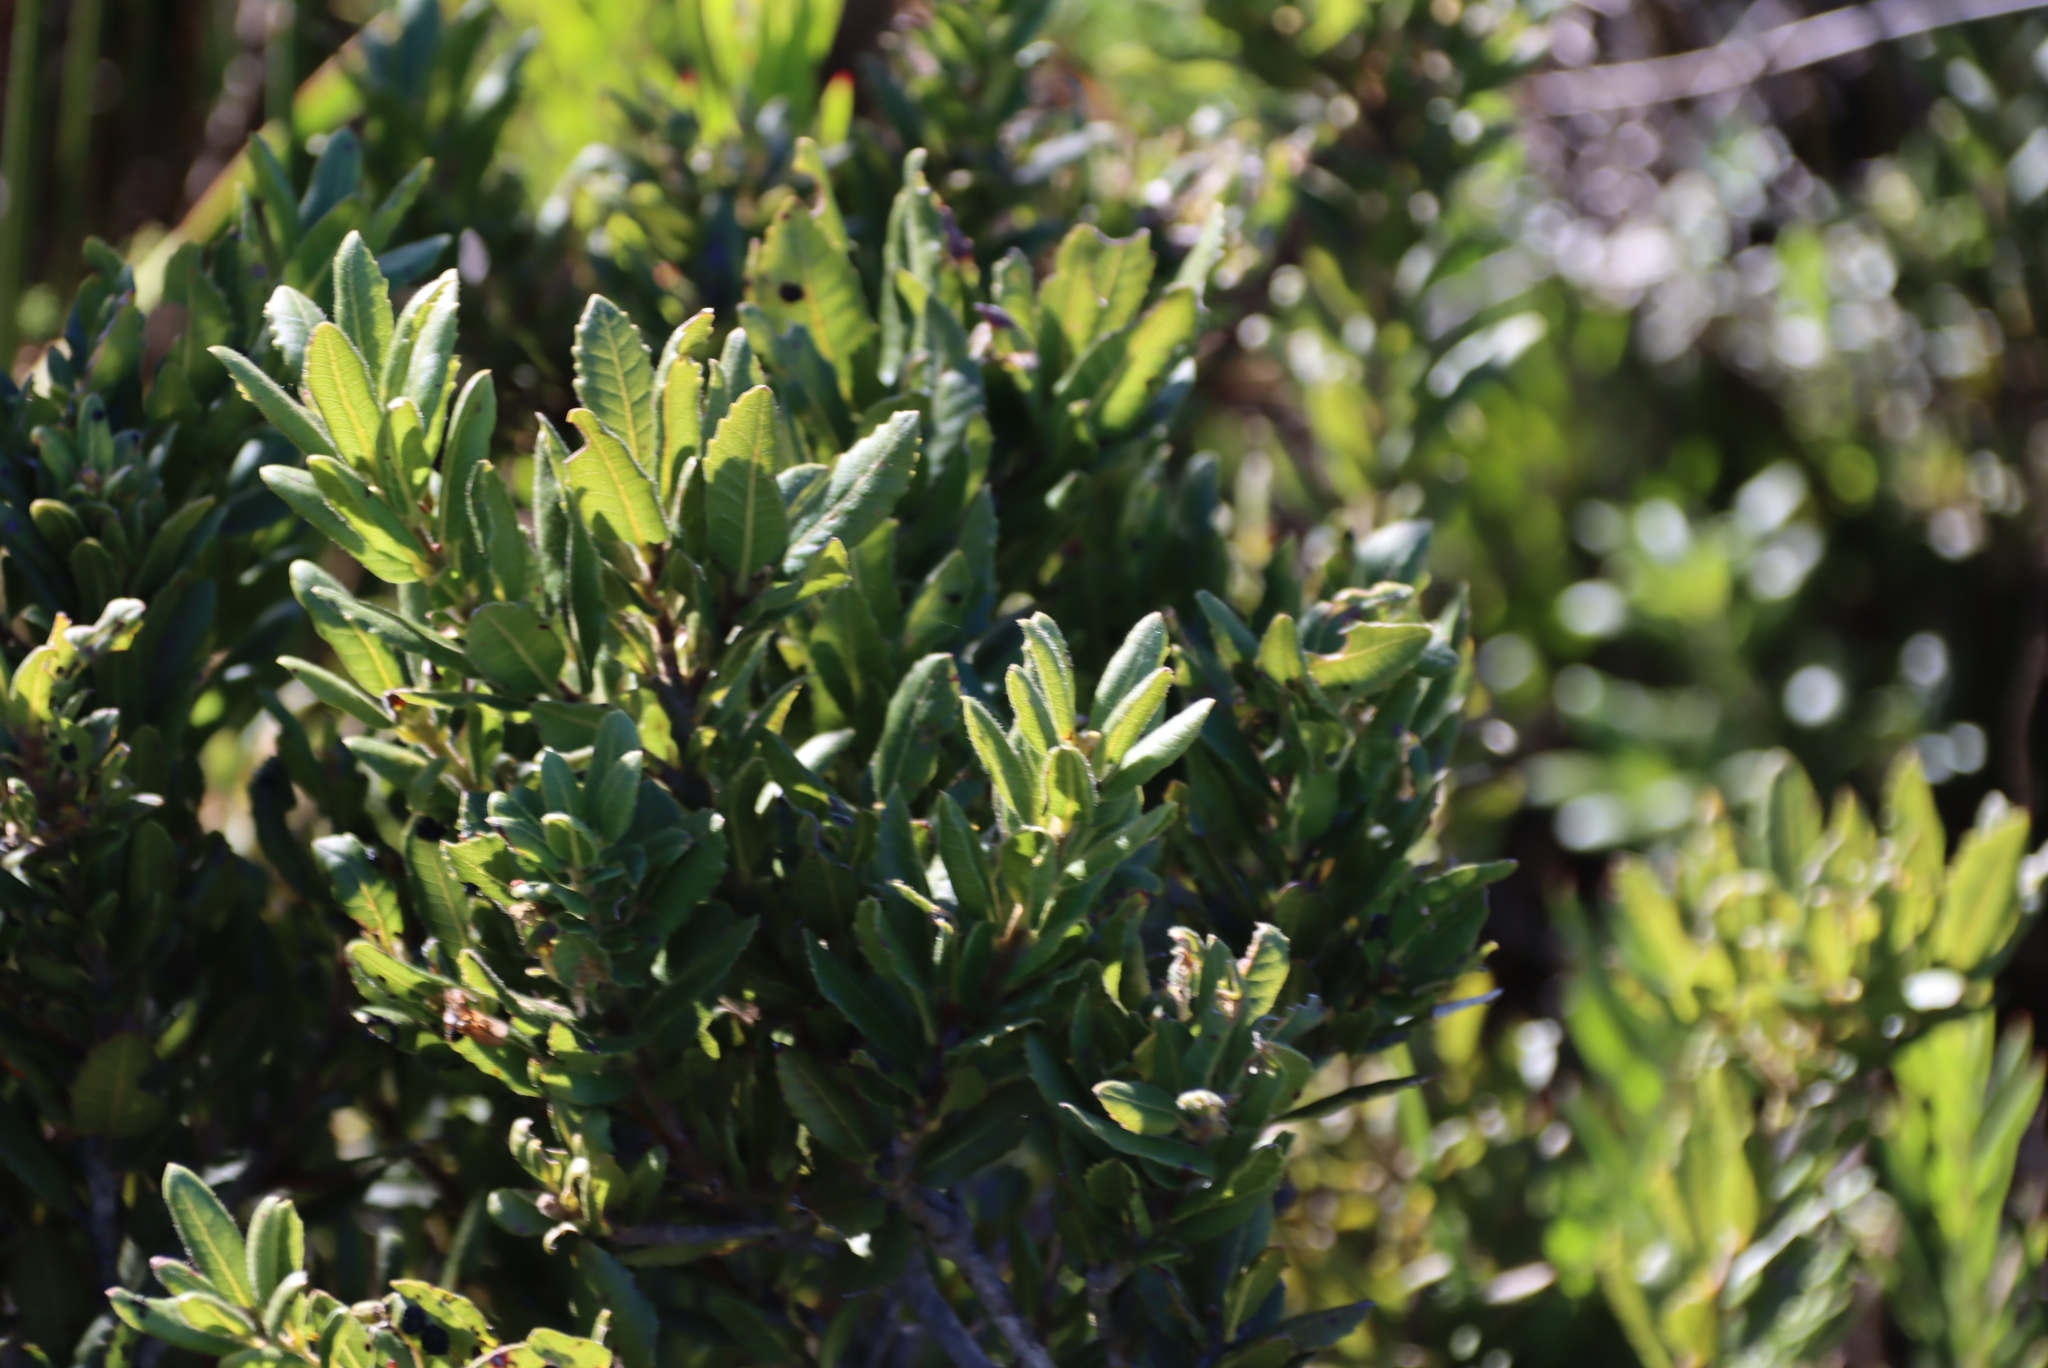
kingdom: Plantae
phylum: Tracheophyta
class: Magnoliopsida
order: Fagales
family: Myricaceae
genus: Morella
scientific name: Morella kraussiana
